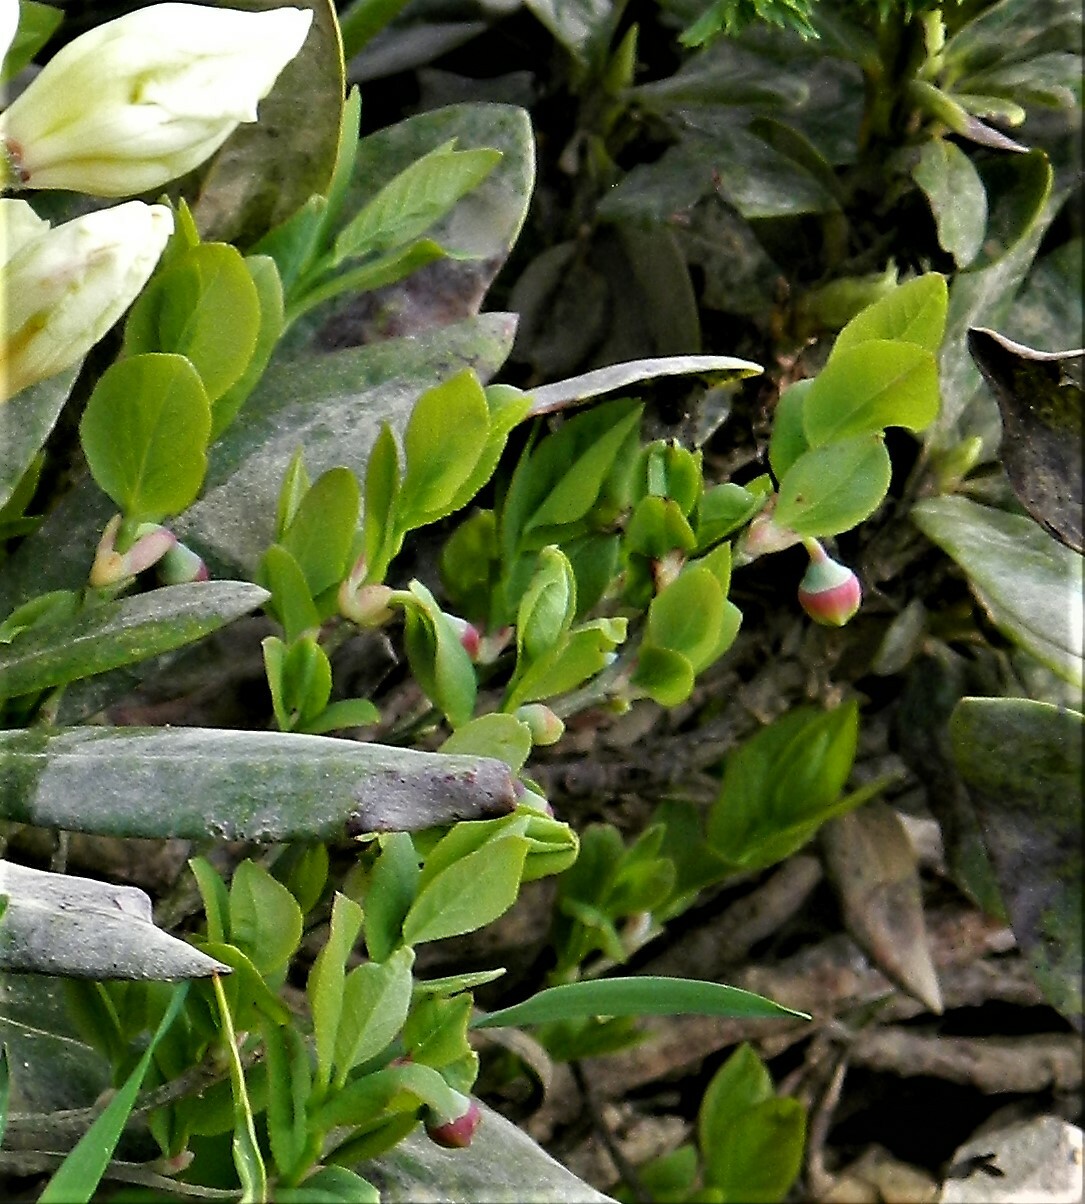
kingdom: Plantae
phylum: Tracheophyta
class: Magnoliopsida
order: Ericales
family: Ericaceae
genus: Vaccinium
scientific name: Vaccinium myrtillus
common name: Bilberry
